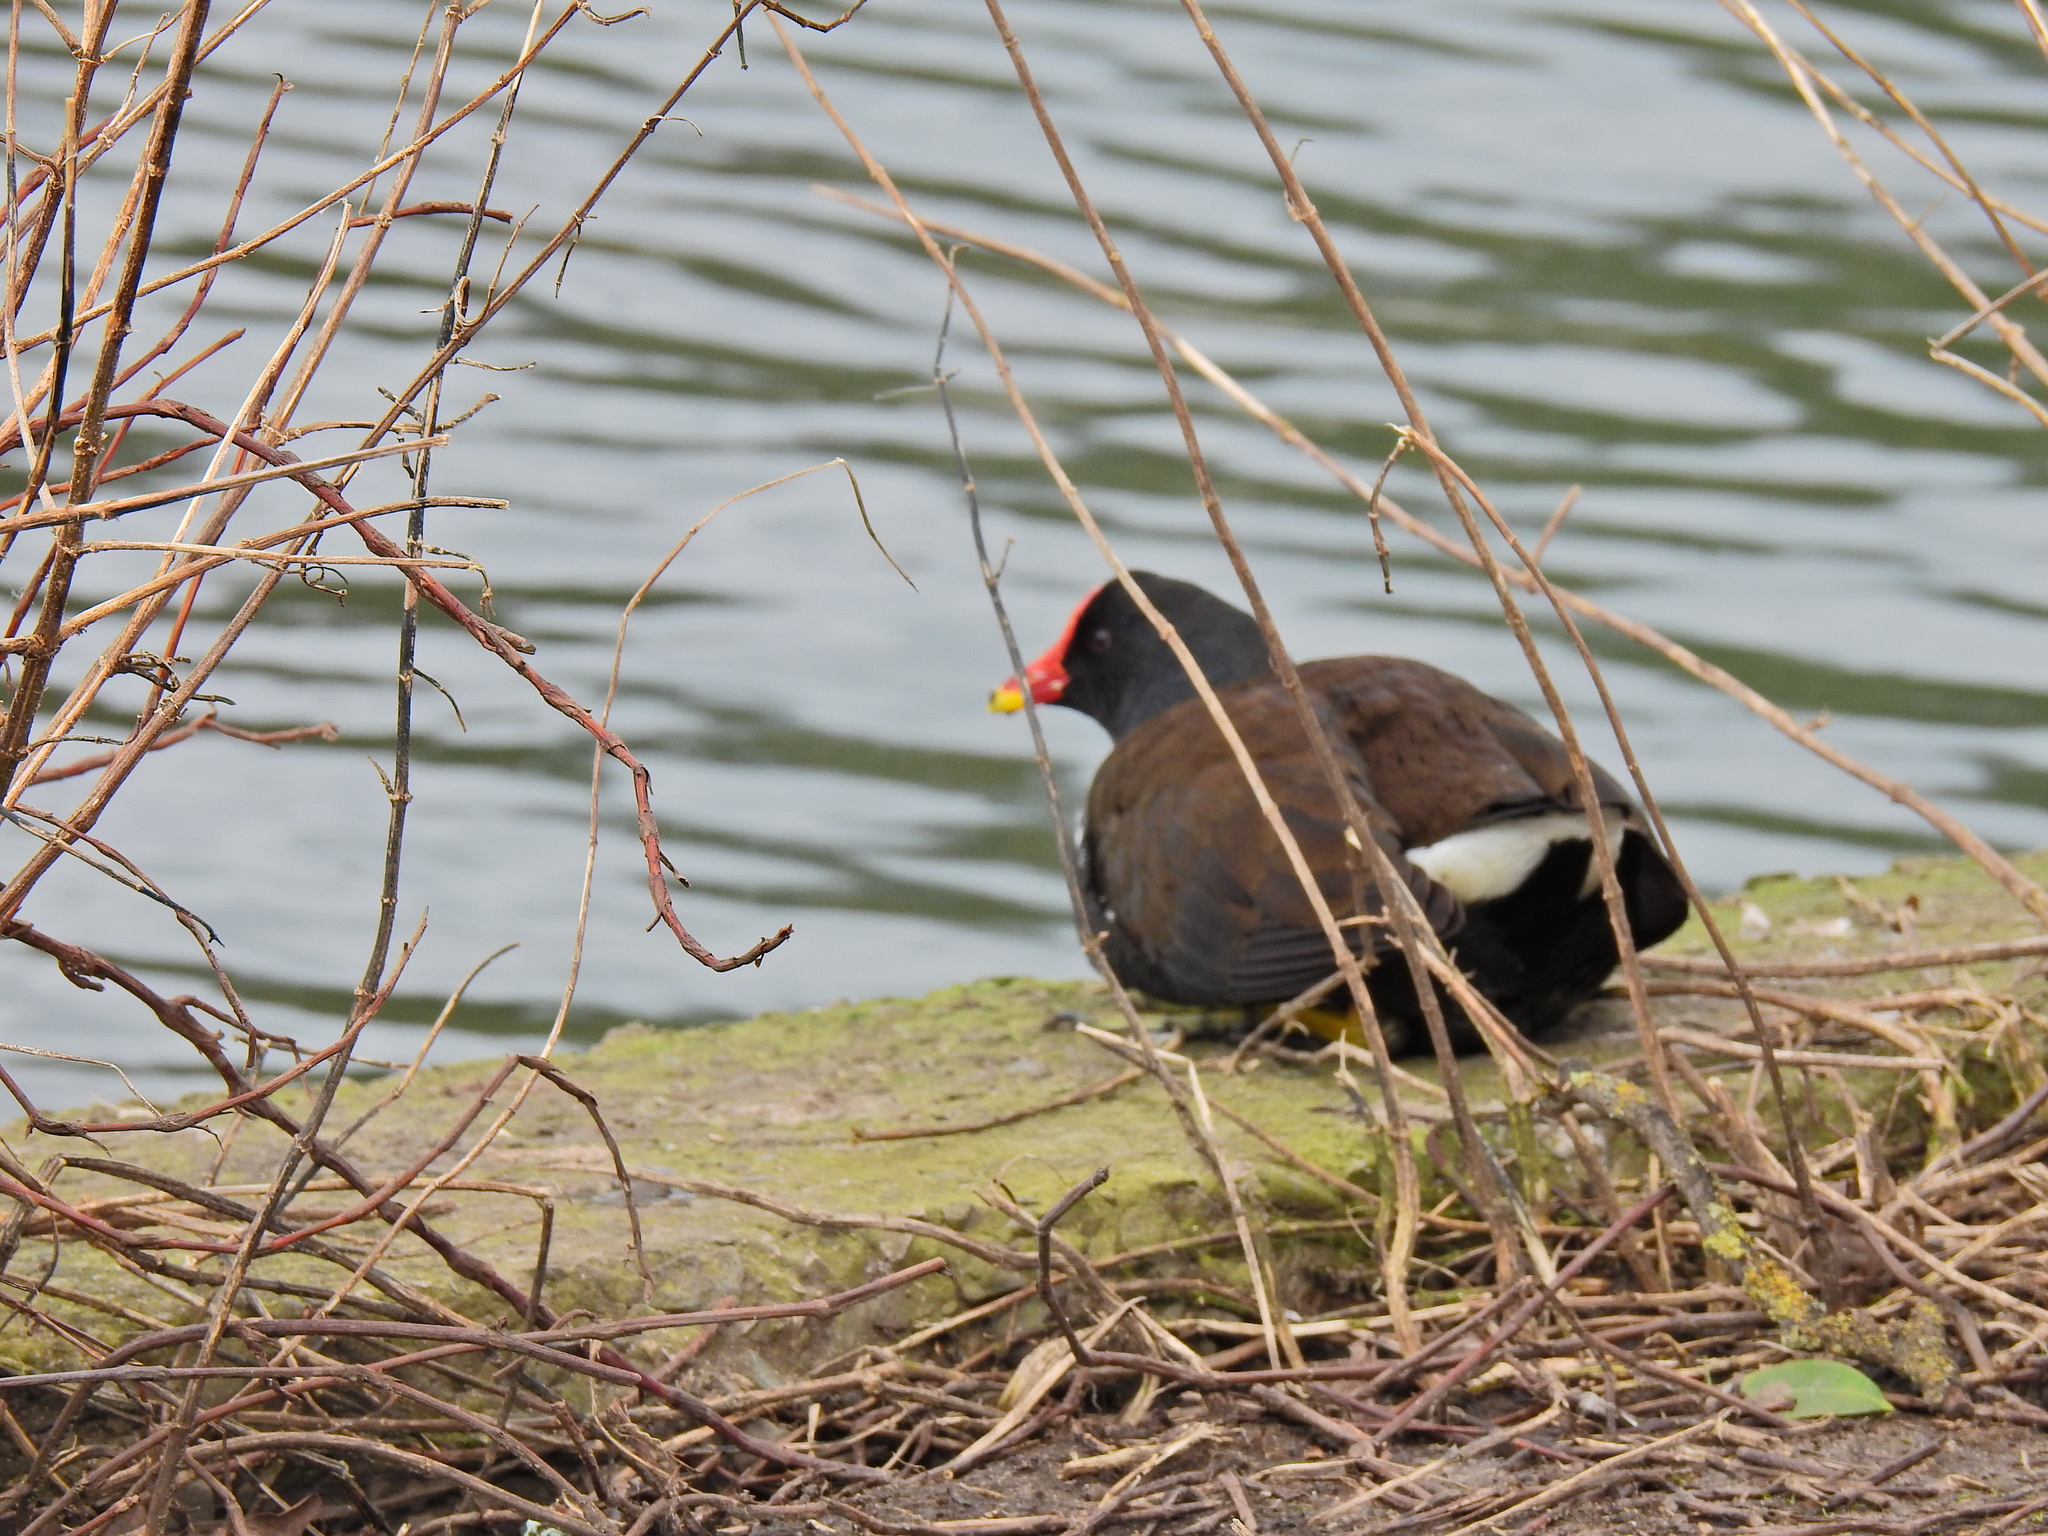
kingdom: Animalia
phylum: Chordata
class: Aves
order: Gruiformes
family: Rallidae
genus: Gallinula
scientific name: Gallinula chloropus
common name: Common moorhen
